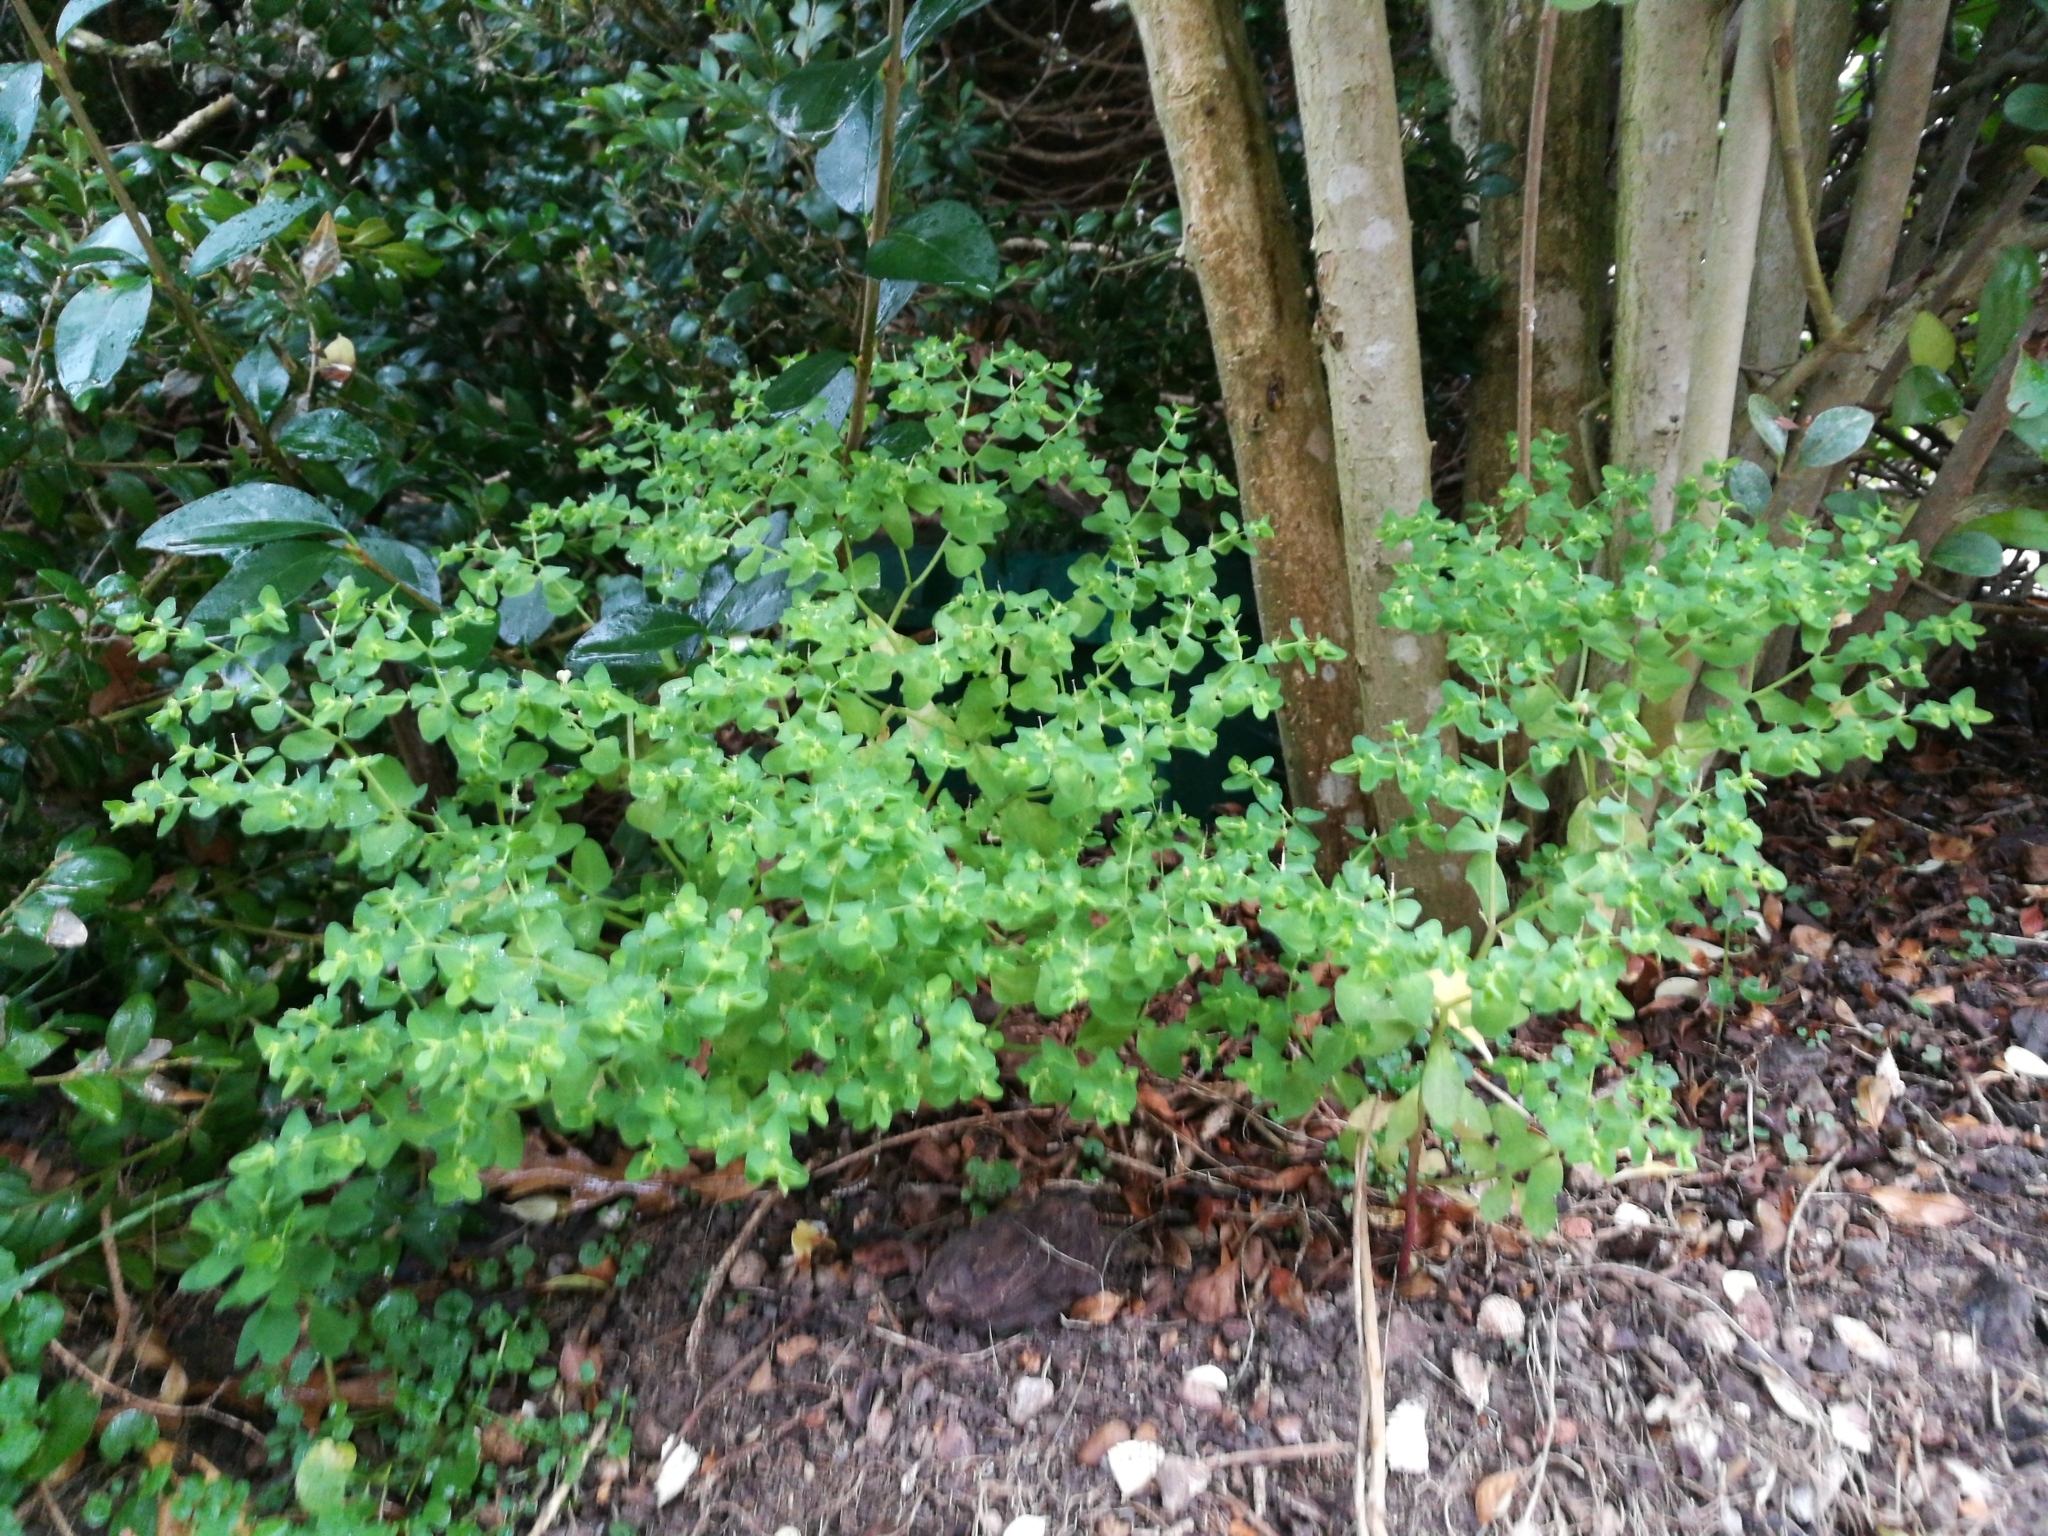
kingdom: Plantae
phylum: Tracheophyta
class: Magnoliopsida
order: Malpighiales
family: Euphorbiaceae
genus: Euphorbia
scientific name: Euphorbia peplus
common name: Petty spurge
